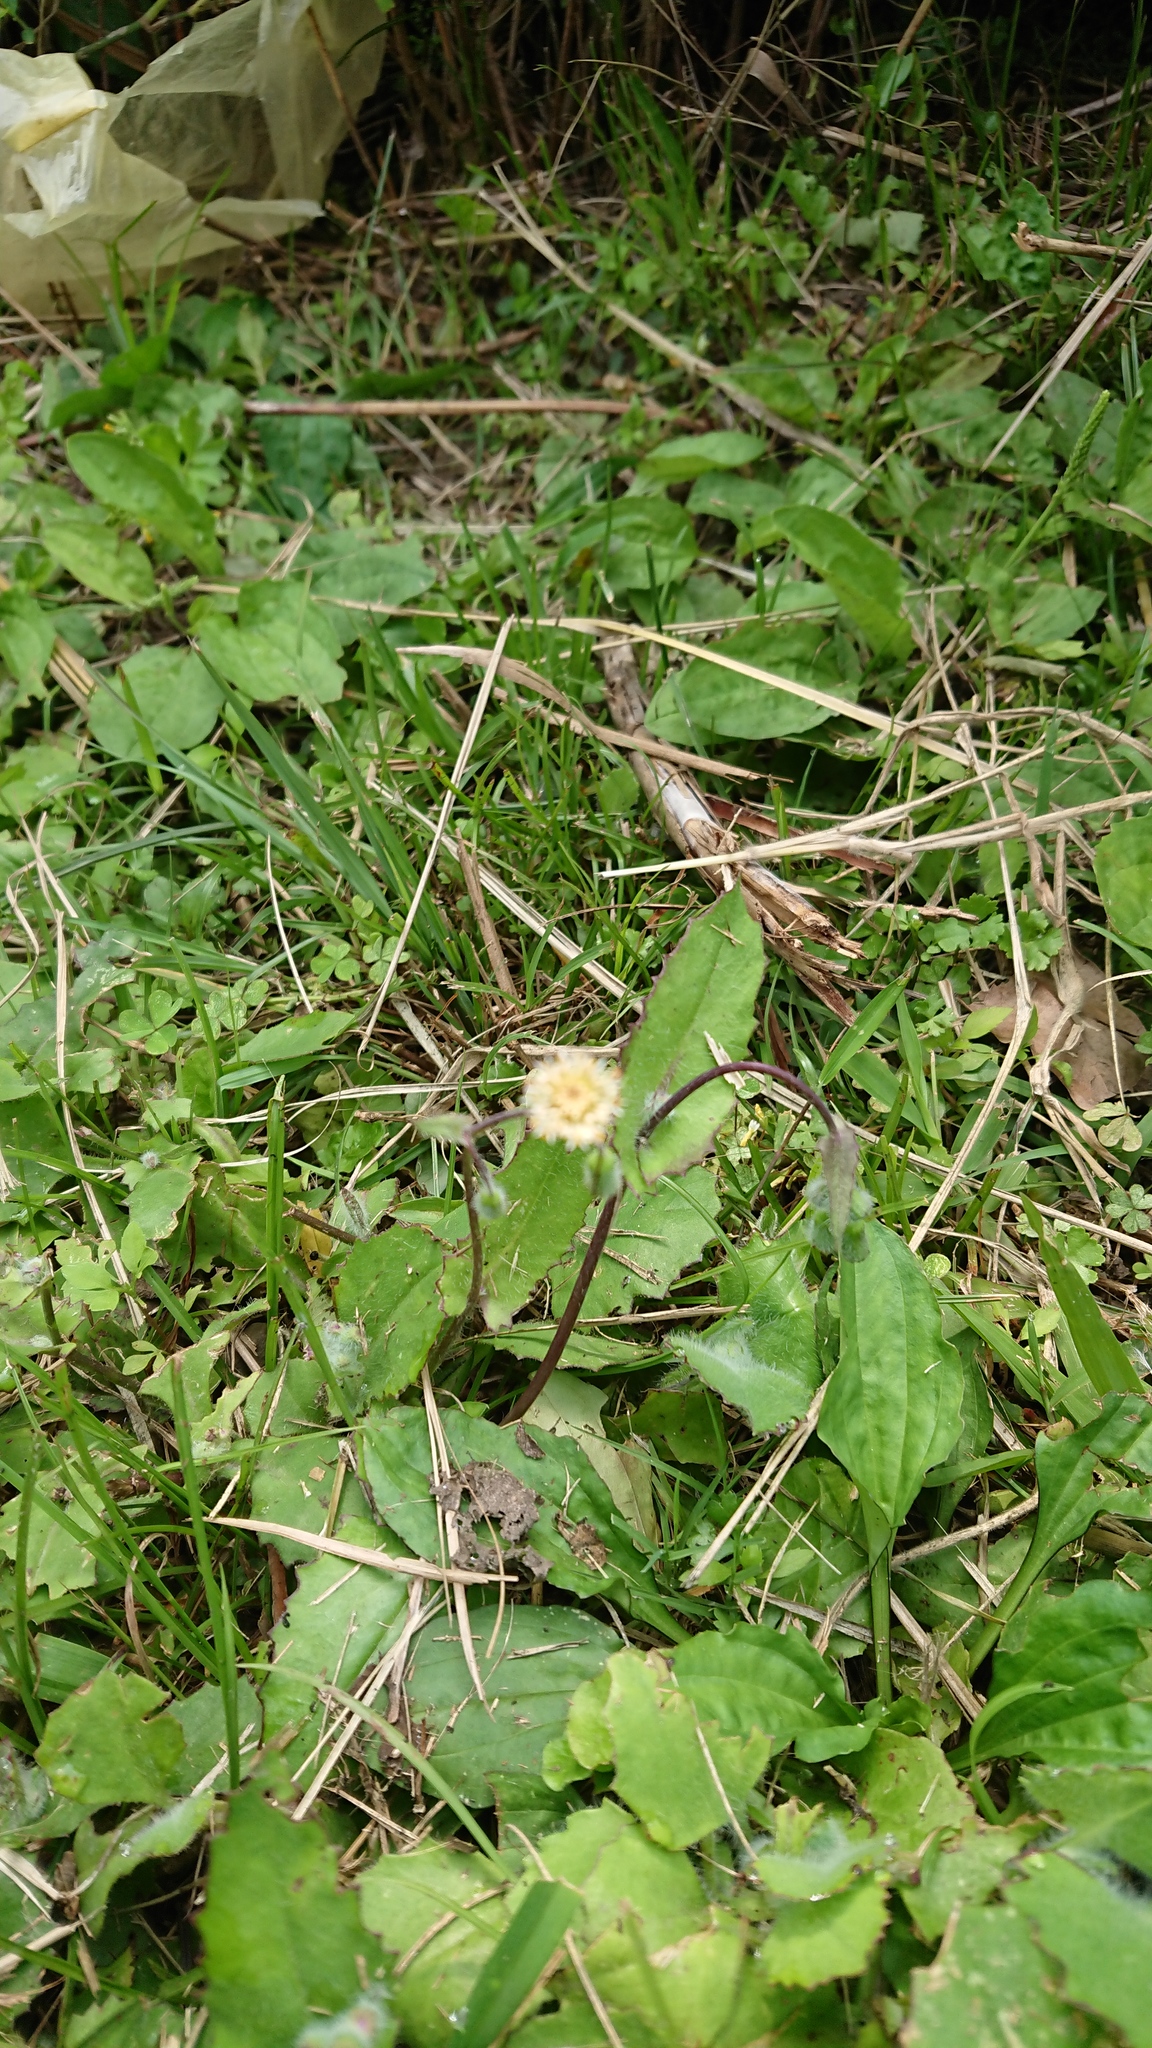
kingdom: Plantae
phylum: Tracheophyta
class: Magnoliopsida
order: Asterales
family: Asteraceae
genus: Emilia
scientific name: Emilia praetermissa
